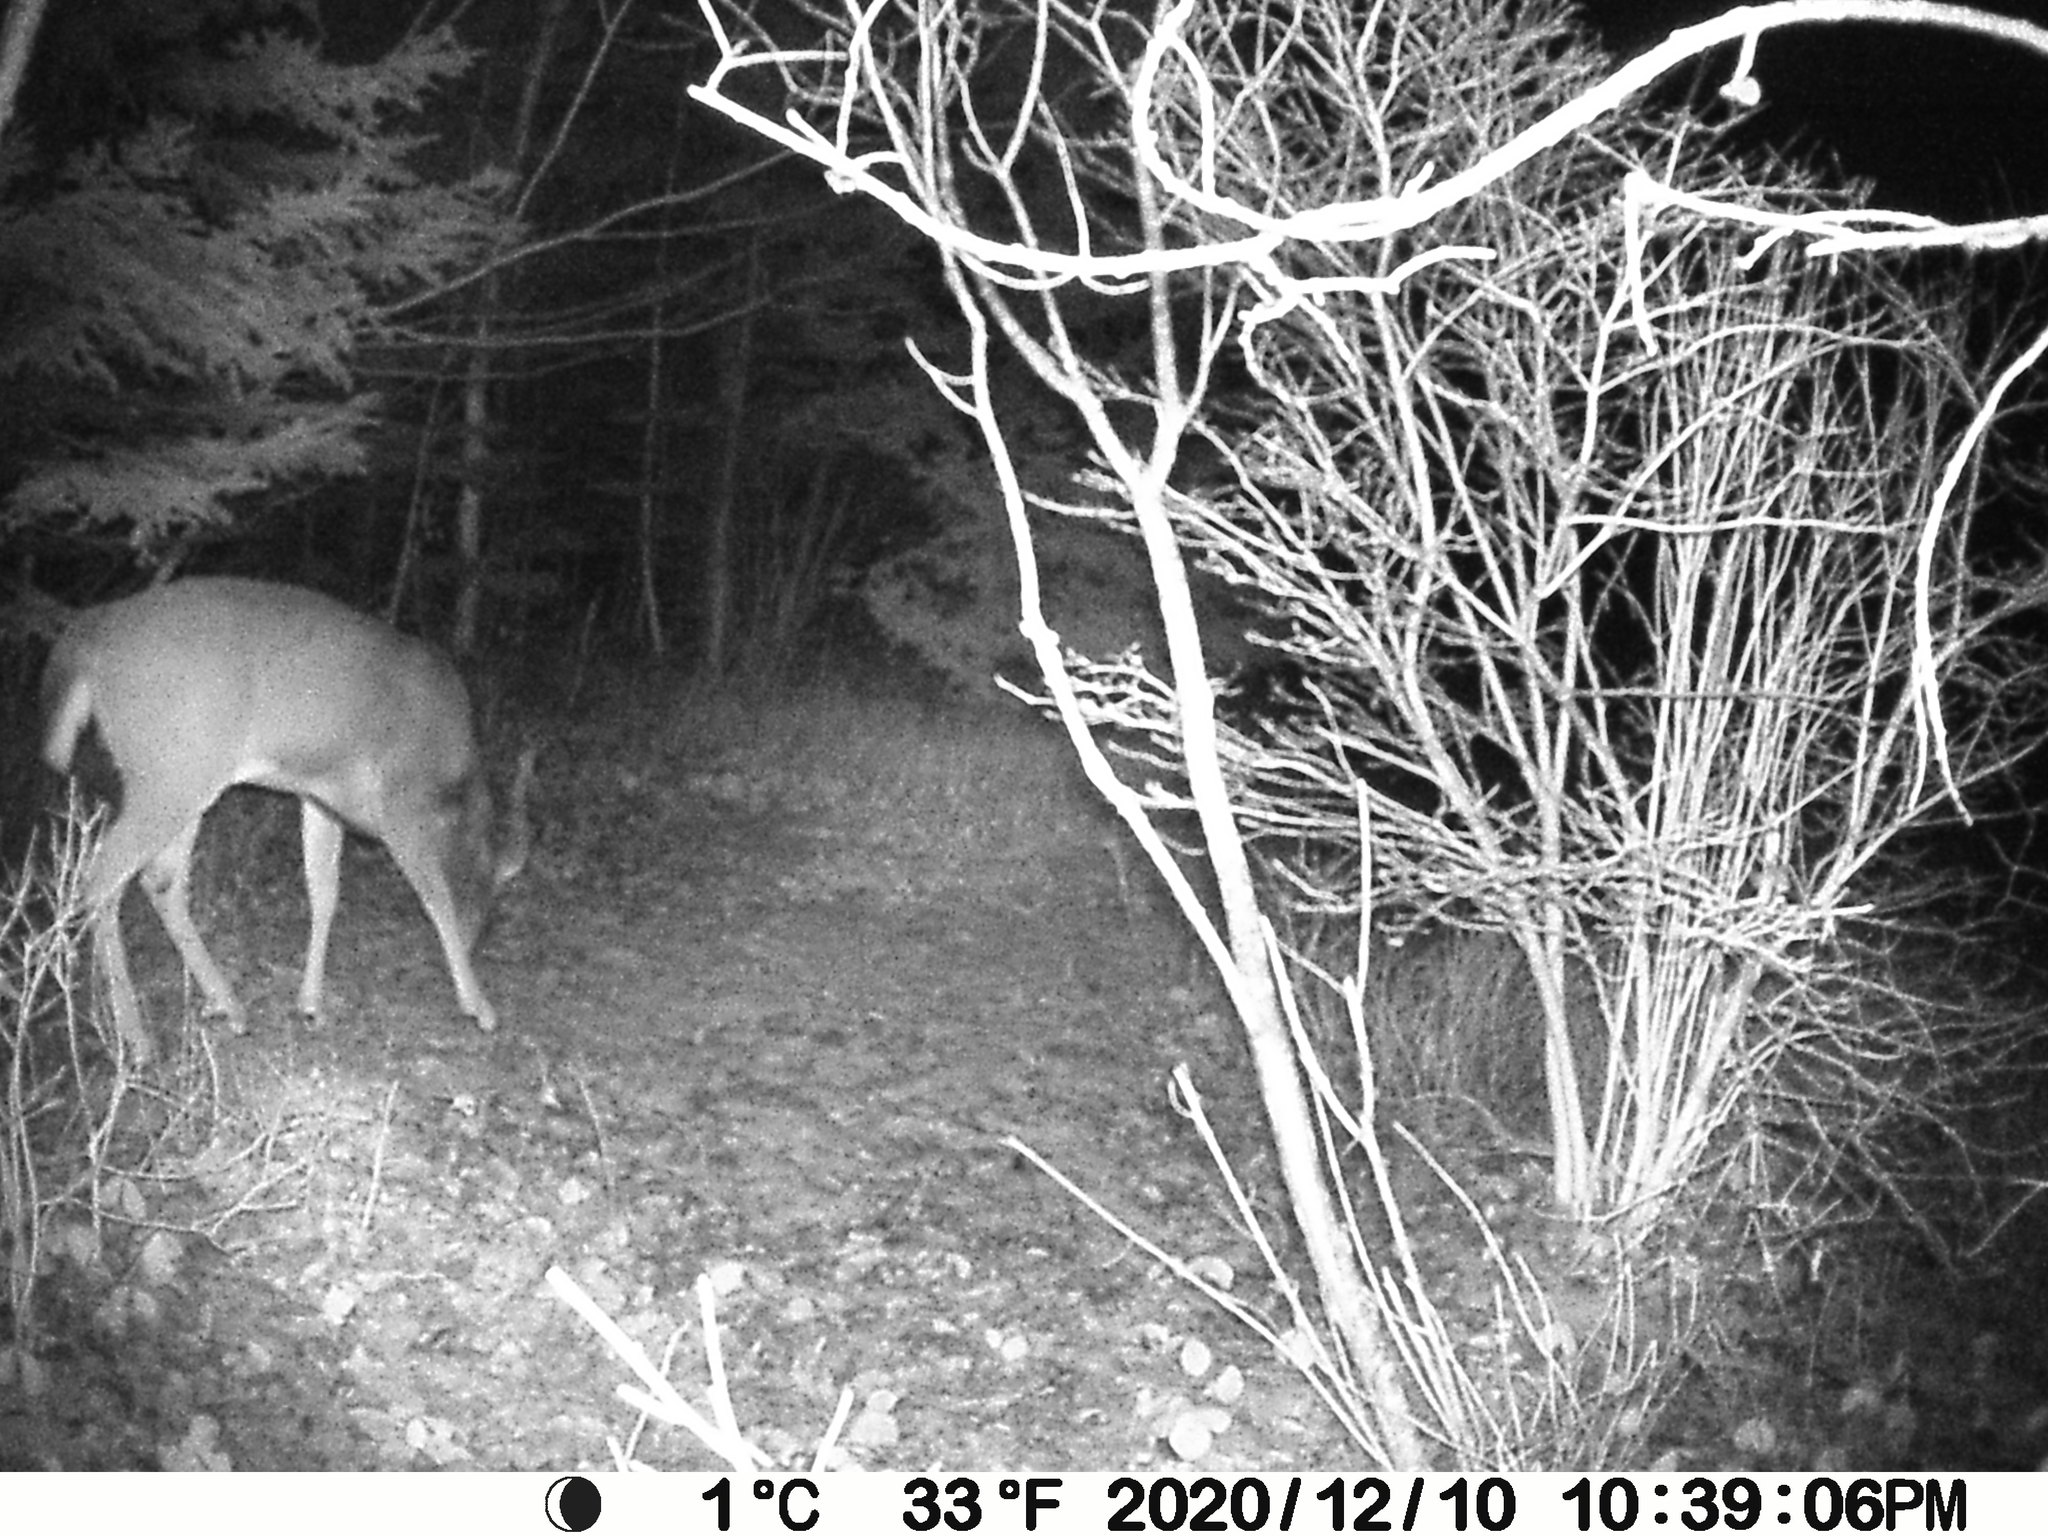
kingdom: Animalia
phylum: Chordata
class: Mammalia
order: Artiodactyla
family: Cervidae
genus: Odocoileus
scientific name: Odocoileus virginianus
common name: White-tailed deer
